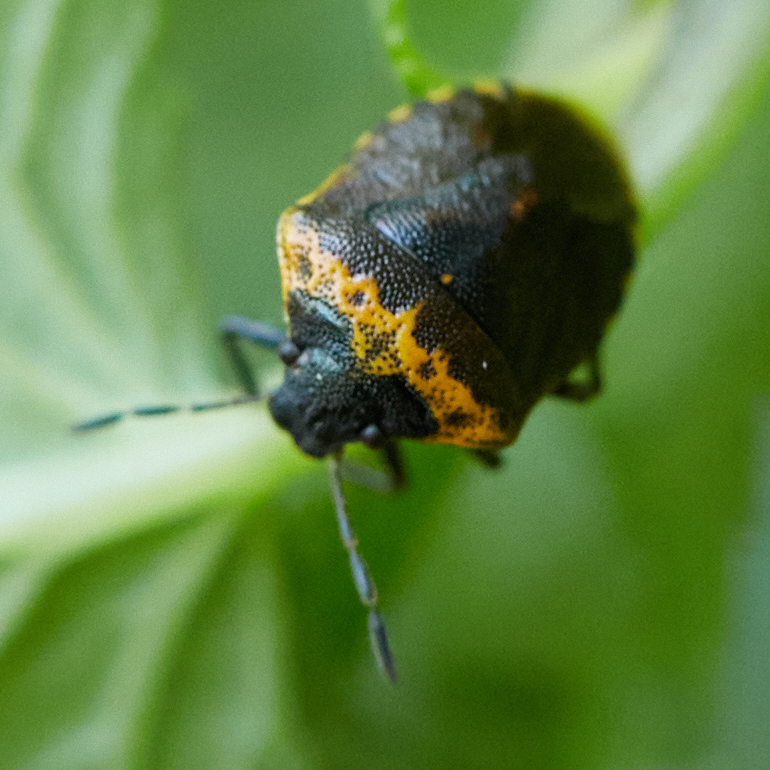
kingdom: Animalia
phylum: Arthropoda
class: Insecta
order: Hemiptera
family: Pentatomidae
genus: Cosmopepla
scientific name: Cosmopepla uhleri
